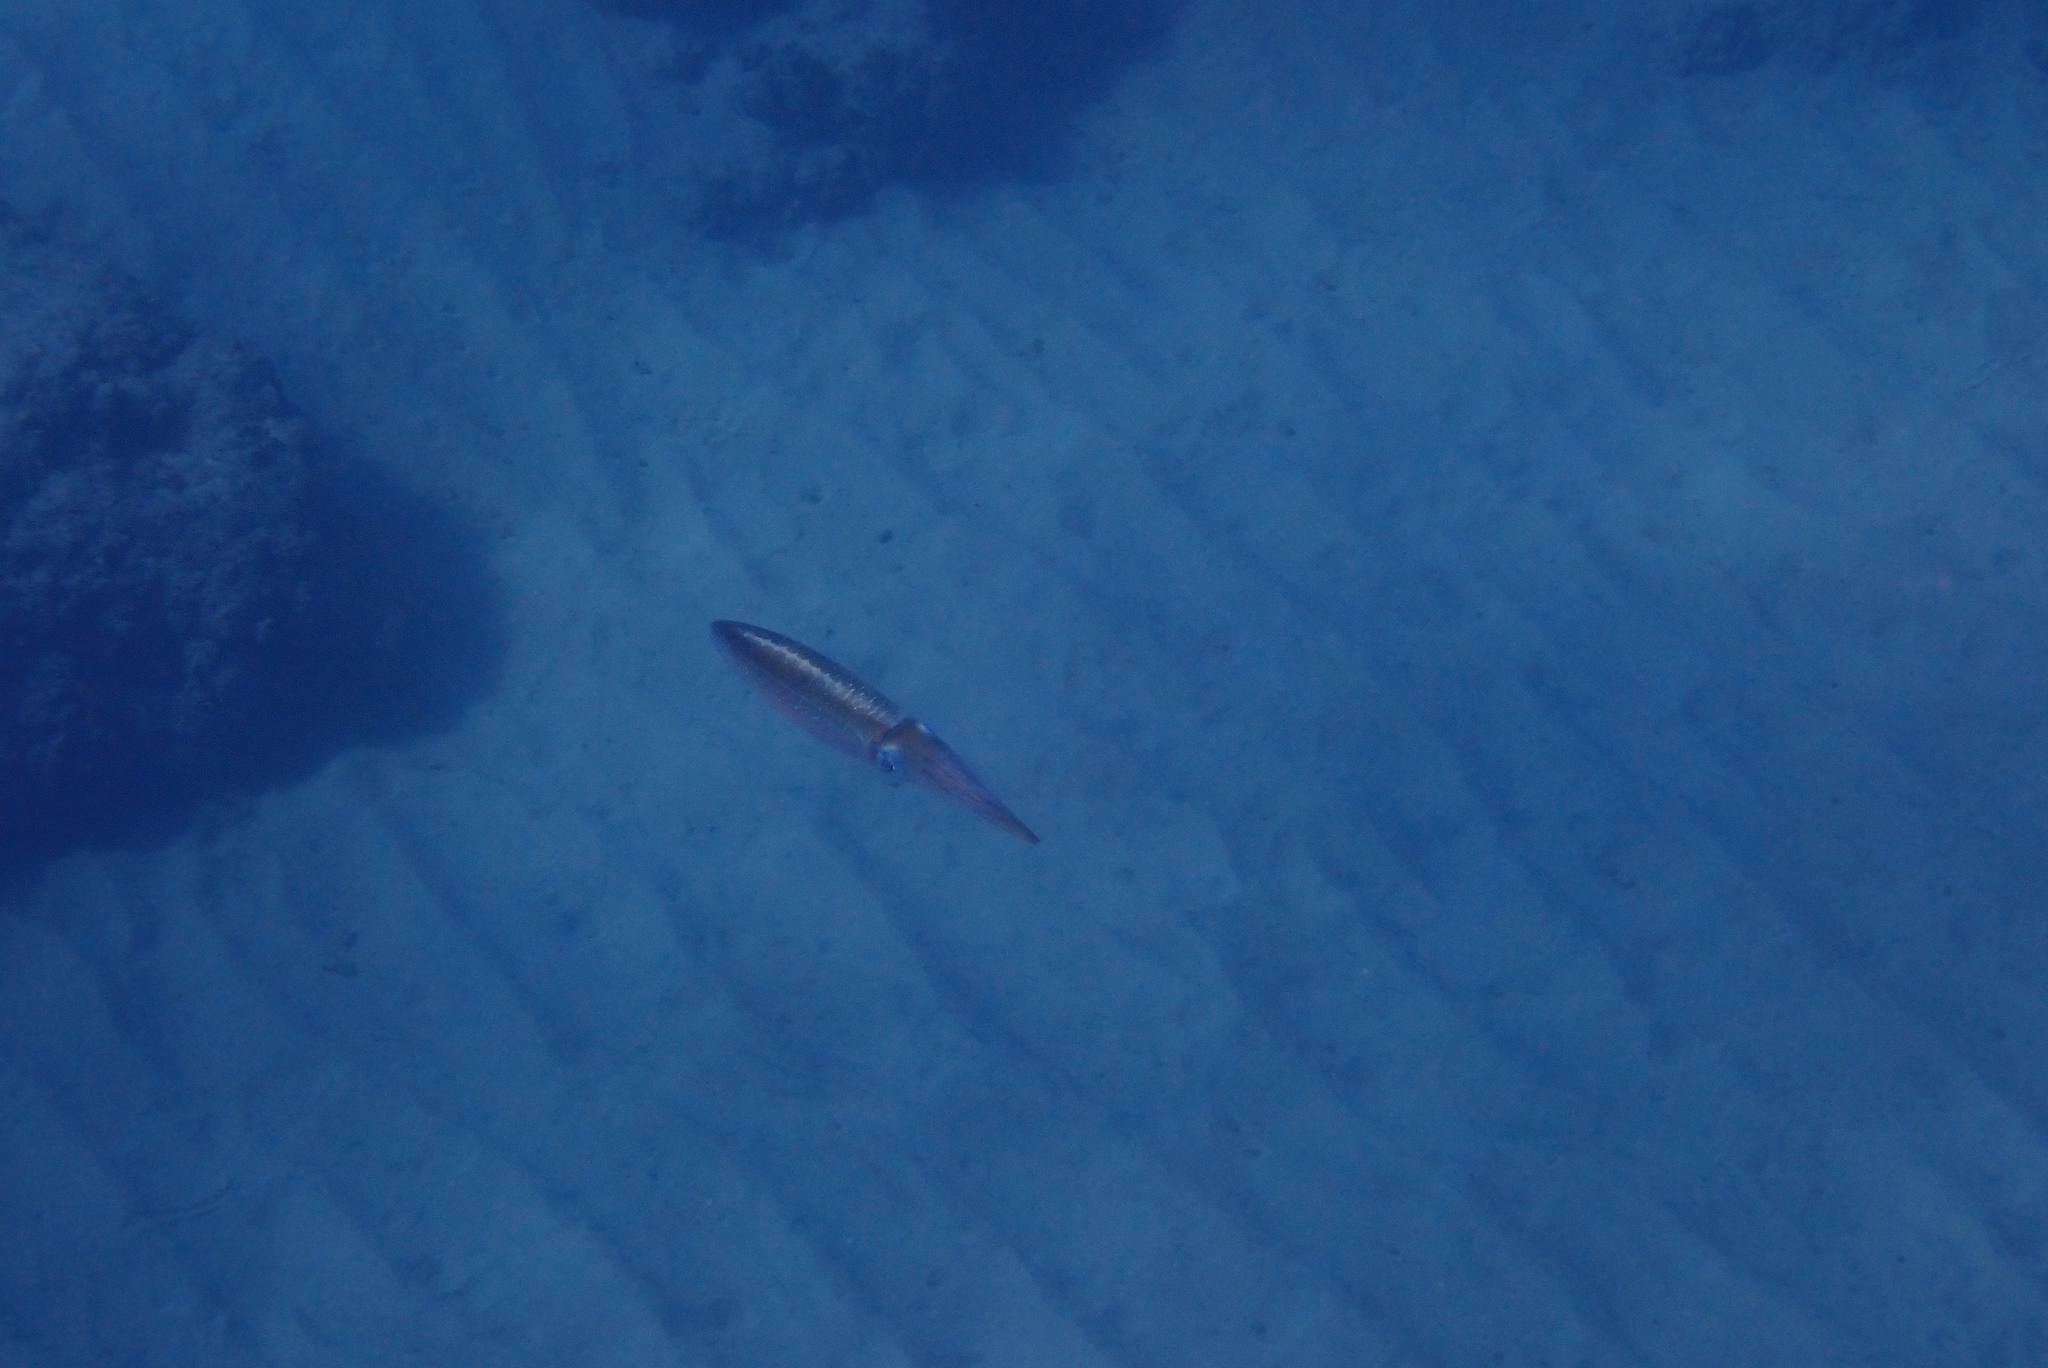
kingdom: Animalia
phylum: Mollusca
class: Cephalopoda
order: Myopsida
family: Loliginidae
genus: Sepioteuthis
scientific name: Sepioteuthis lessoniana
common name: Bigfin reef squid
